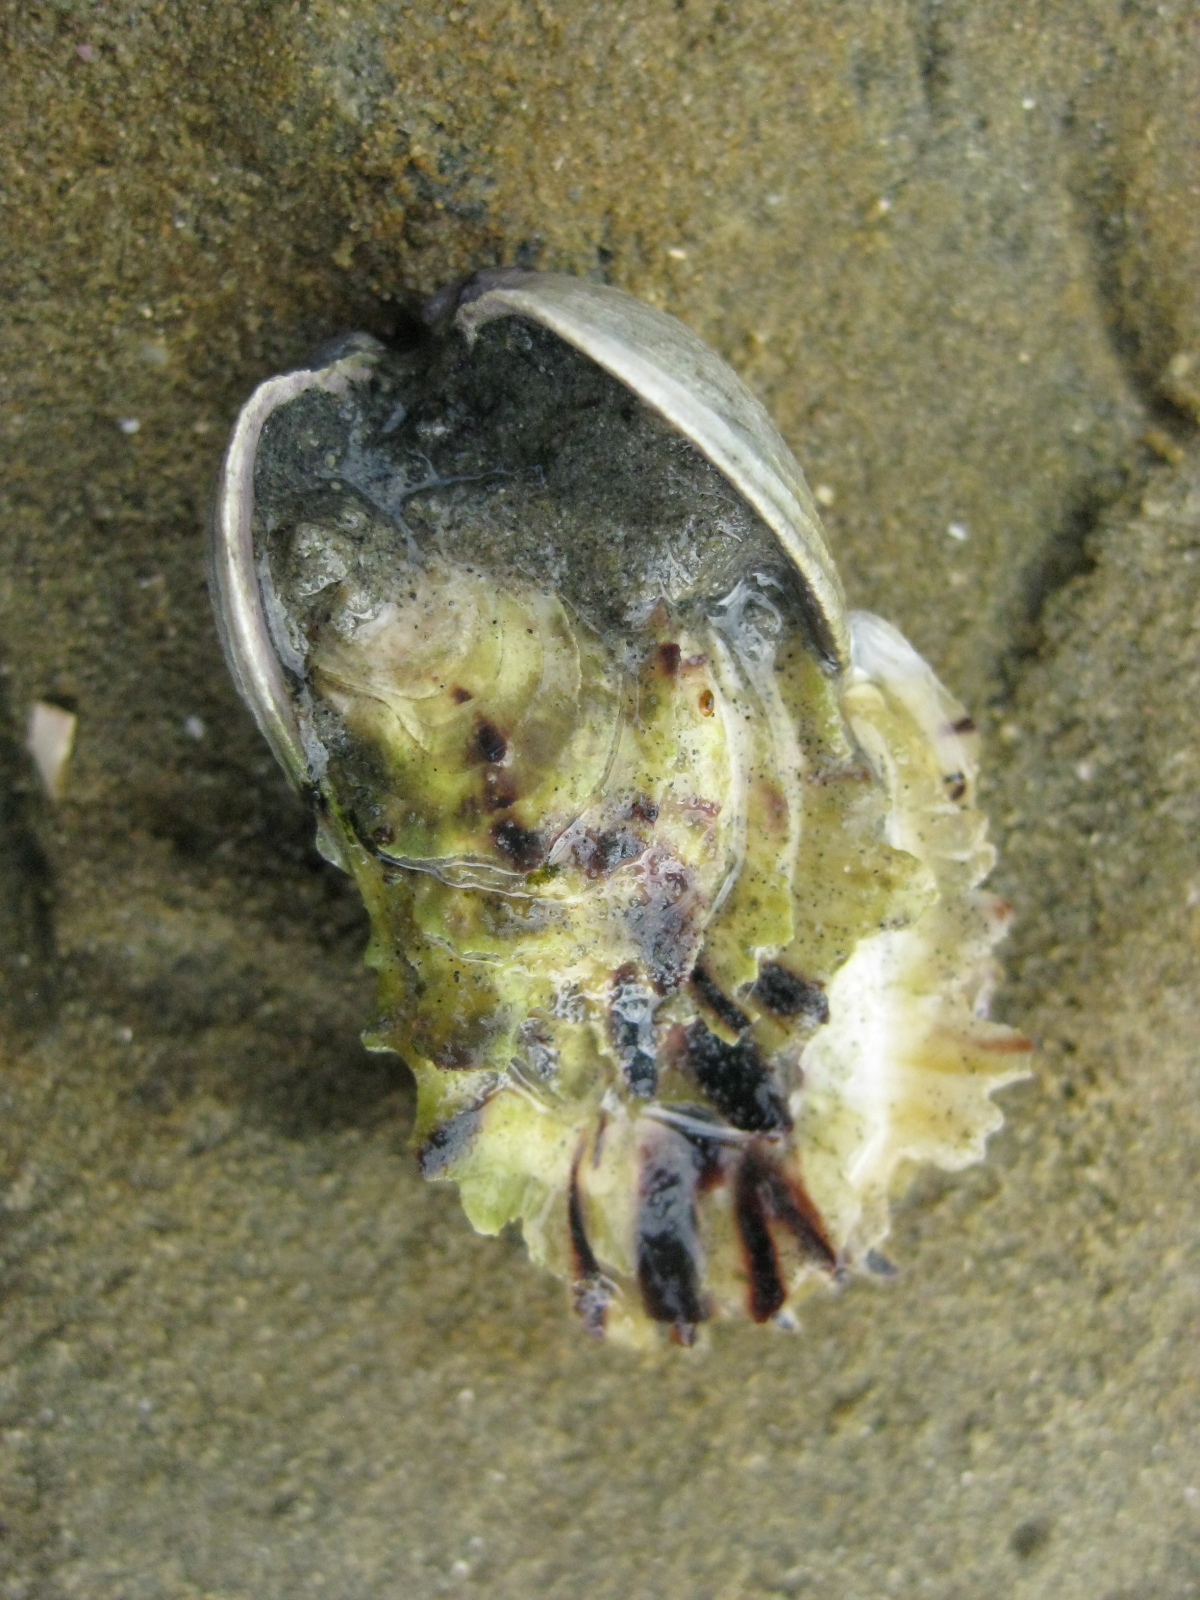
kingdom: Animalia
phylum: Mollusca
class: Bivalvia
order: Ostreida
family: Ostreidae
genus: Magallana
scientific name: Magallana gigas
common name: Pacific oyster
